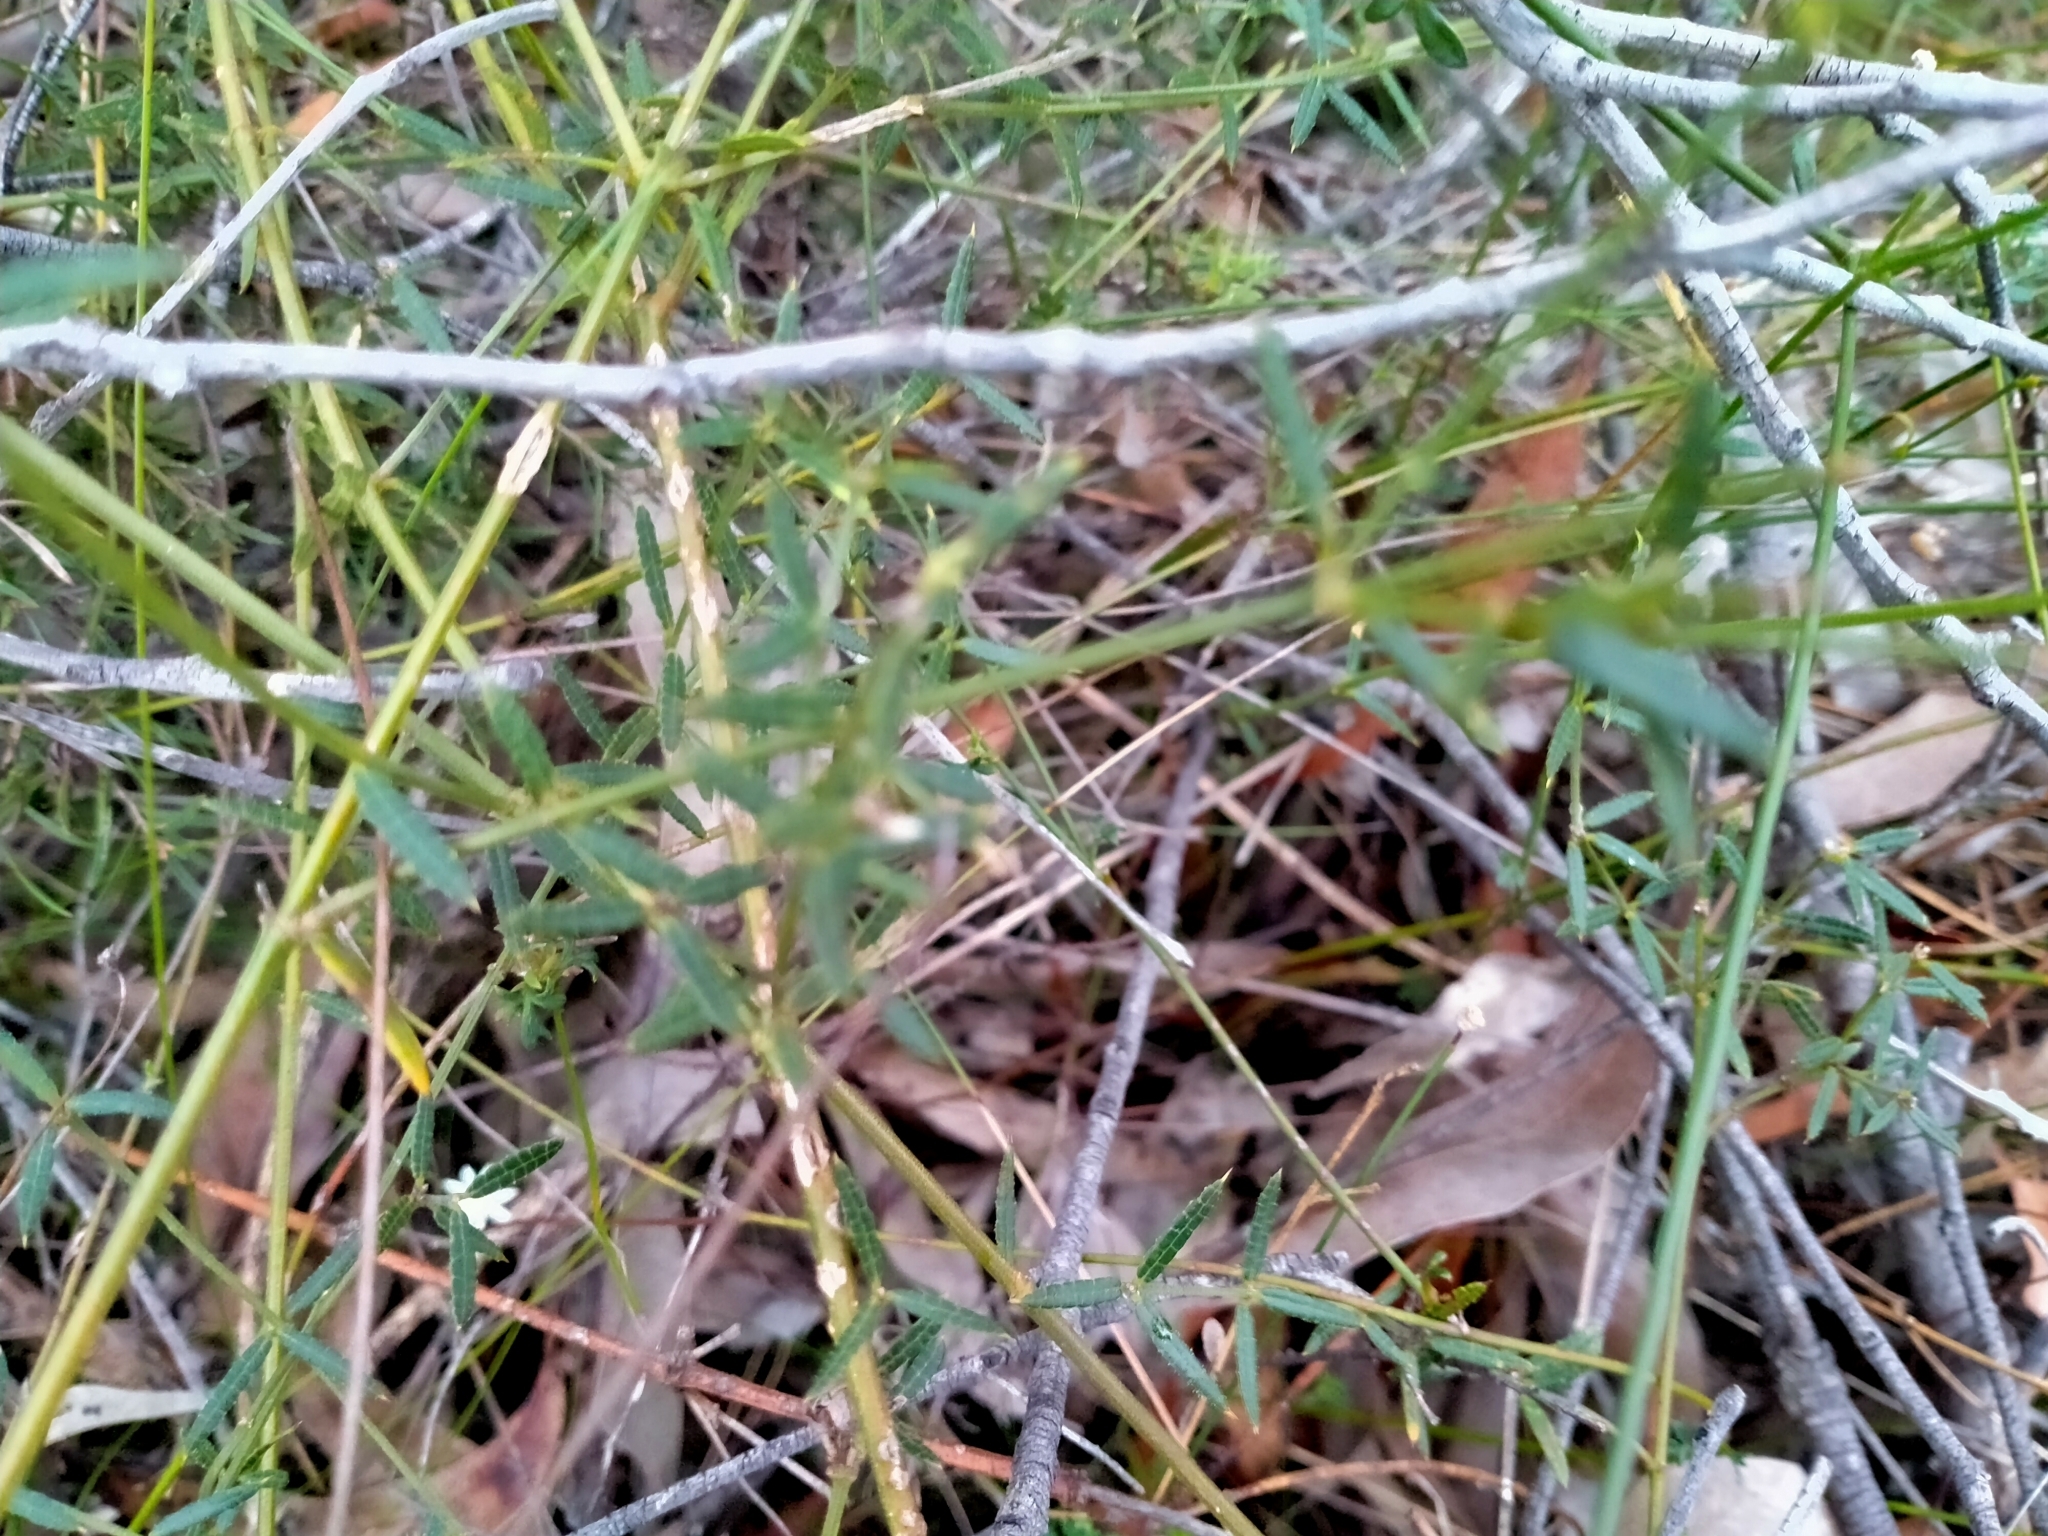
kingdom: Plantae
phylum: Tracheophyta
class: Magnoliopsida
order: Apiales
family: Apiaceae
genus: Actinotus
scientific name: Actinotus minor
